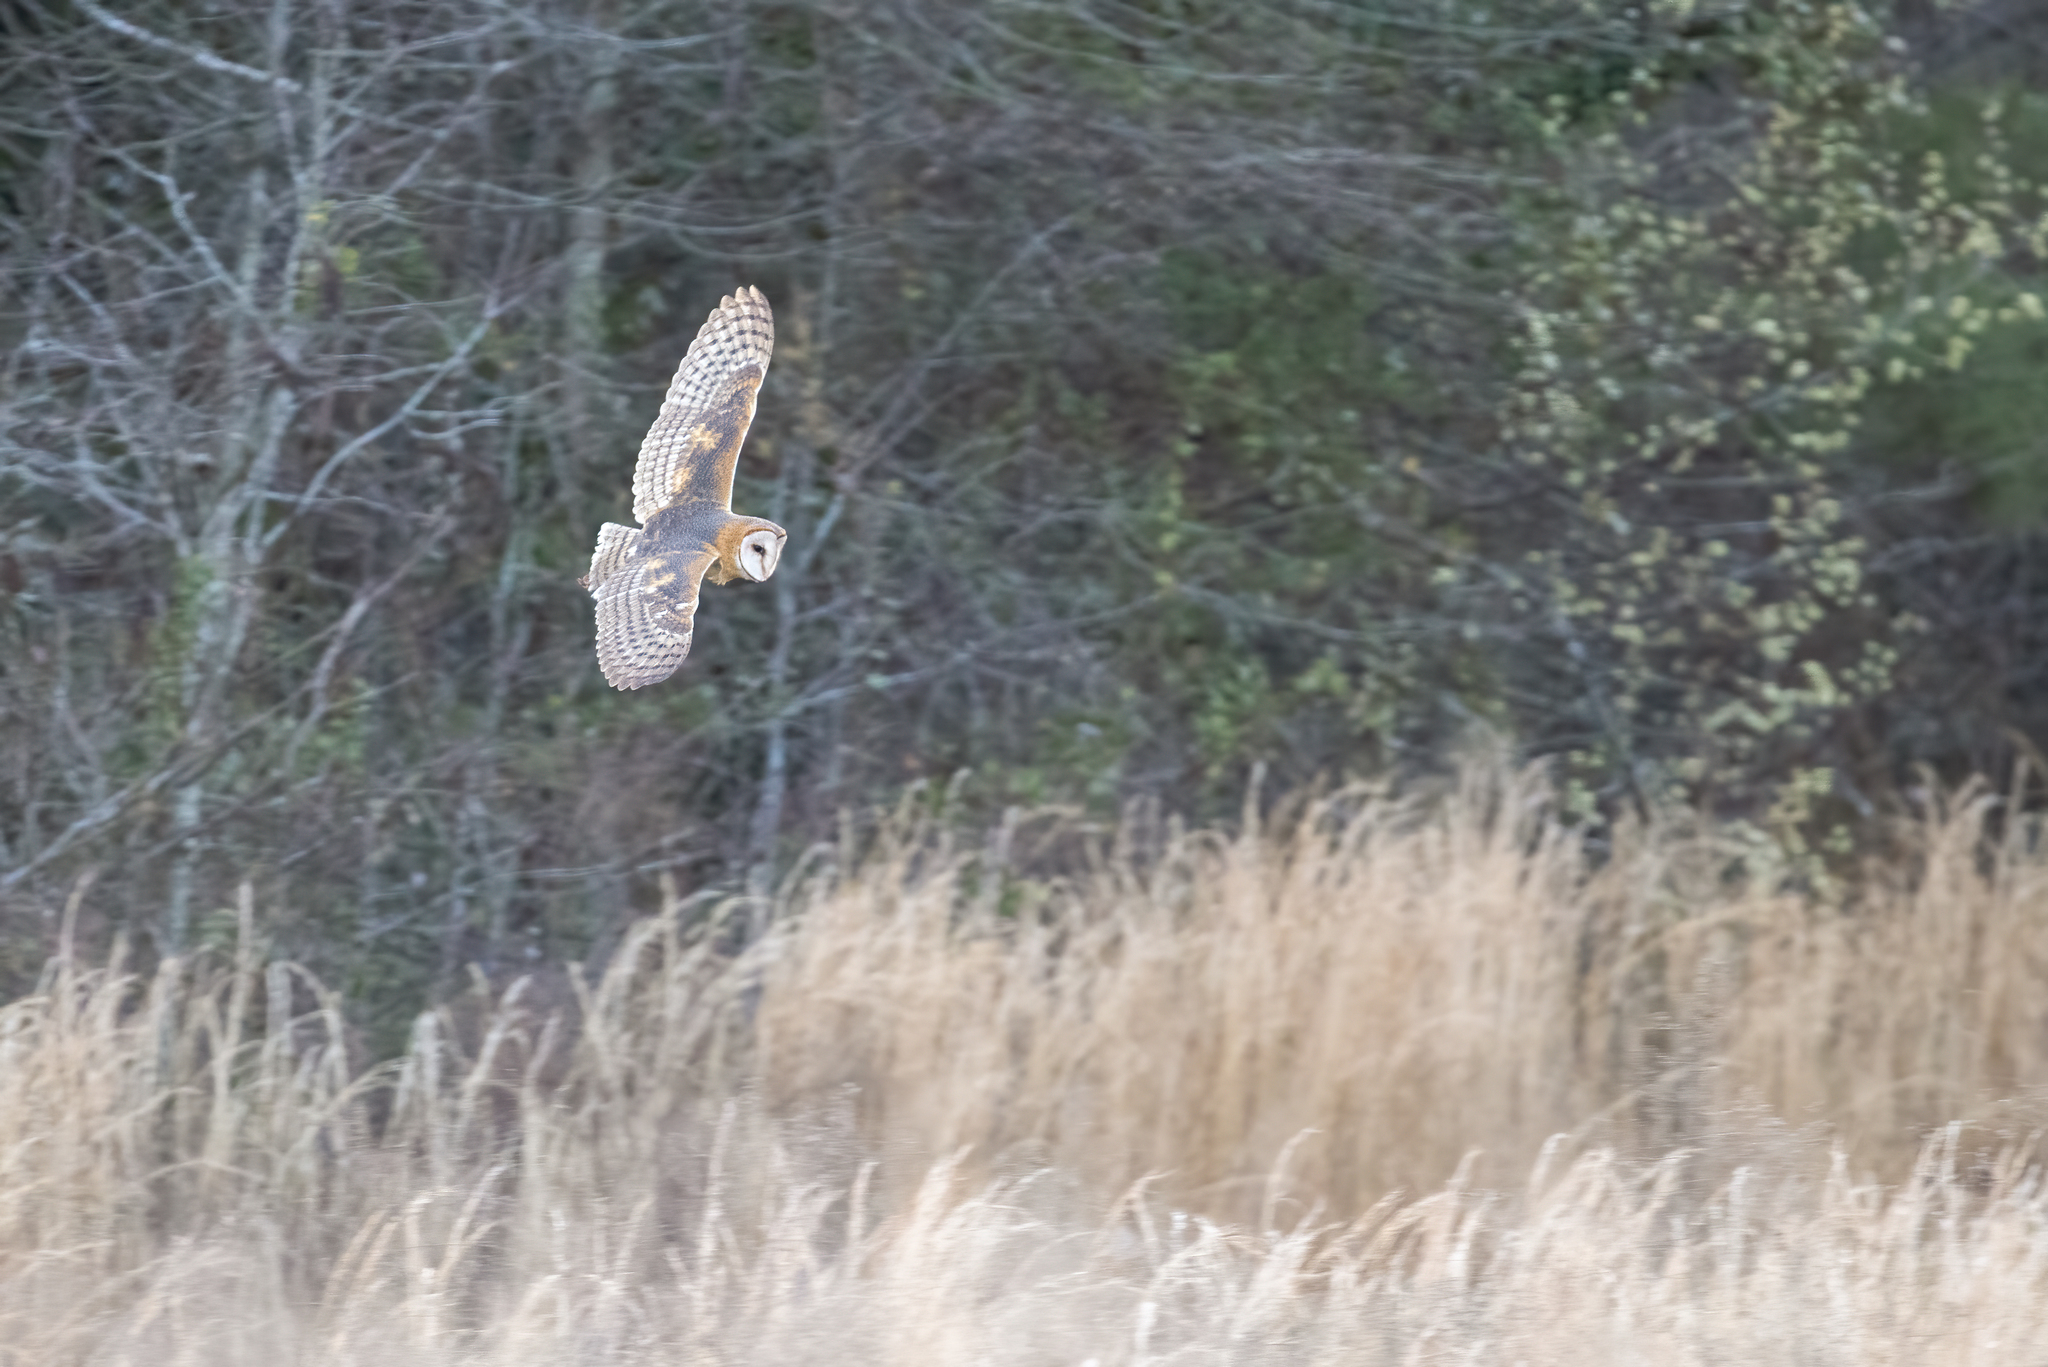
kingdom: Animalia
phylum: Chordata
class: Aves
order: Strigiformes
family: Tytonidae
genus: Tyto
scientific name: Tyto alba
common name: Barn owl
